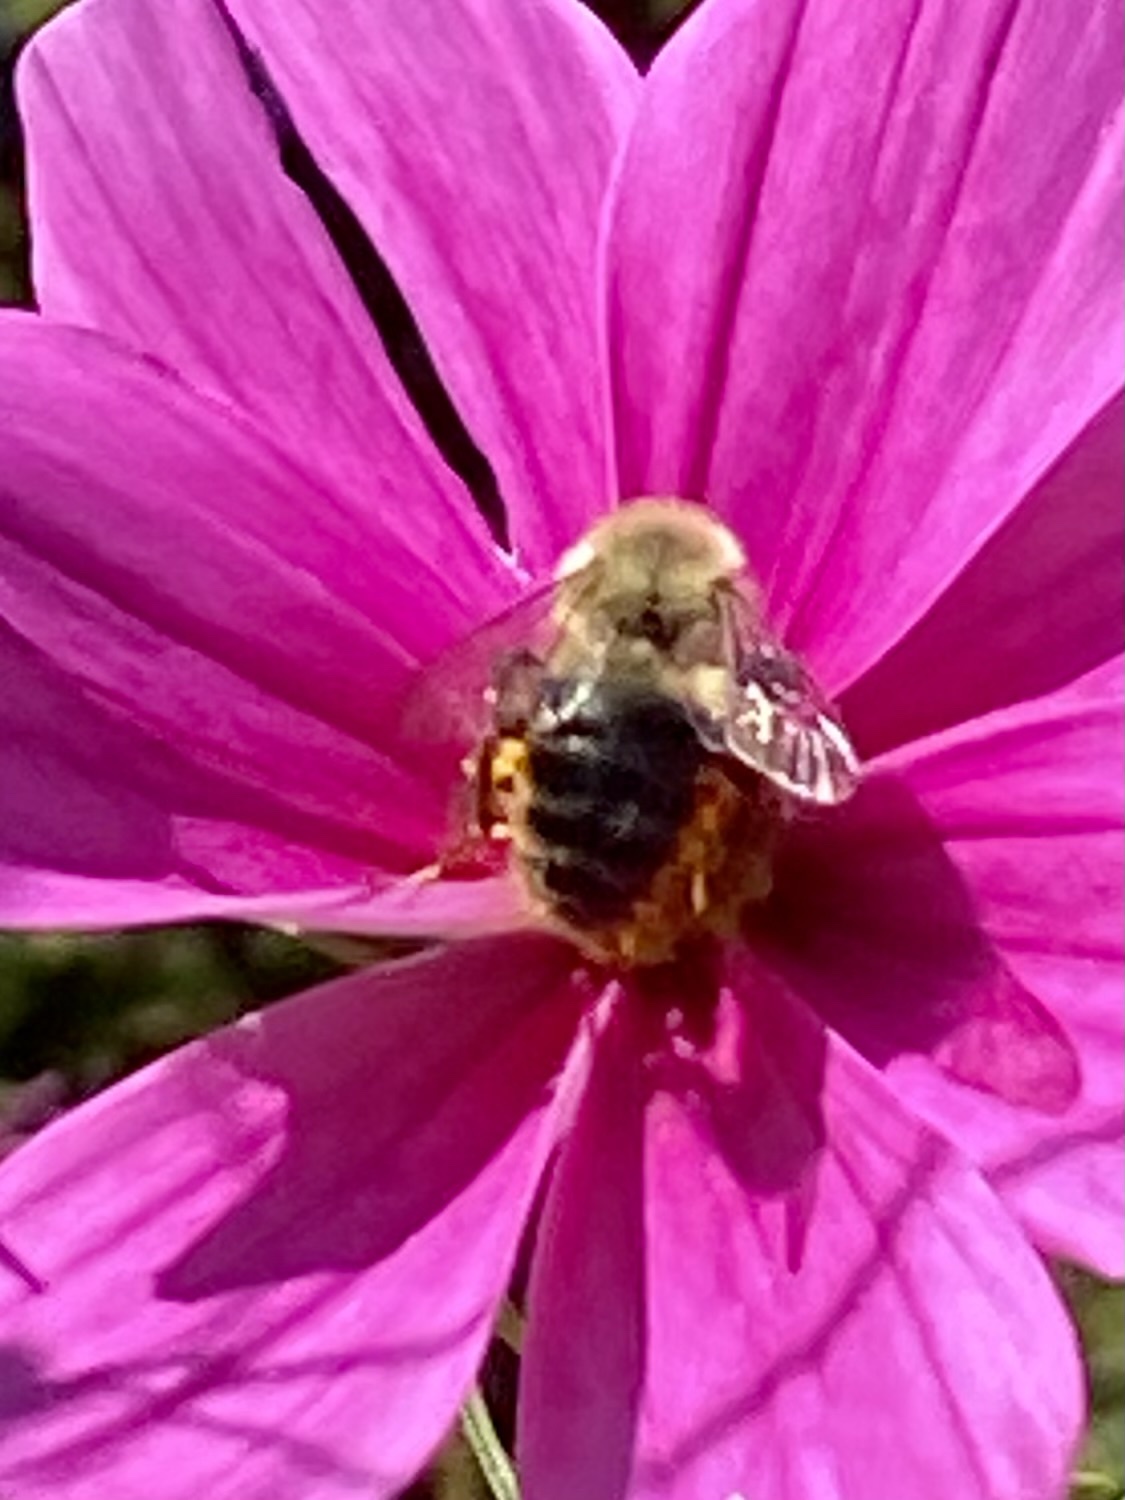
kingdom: Animalia
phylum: Arthropoda
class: Insecta
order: Hymenoptera
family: Apidae
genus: Bombus
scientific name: Bombus impatiens
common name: Common eastern bumble bee
